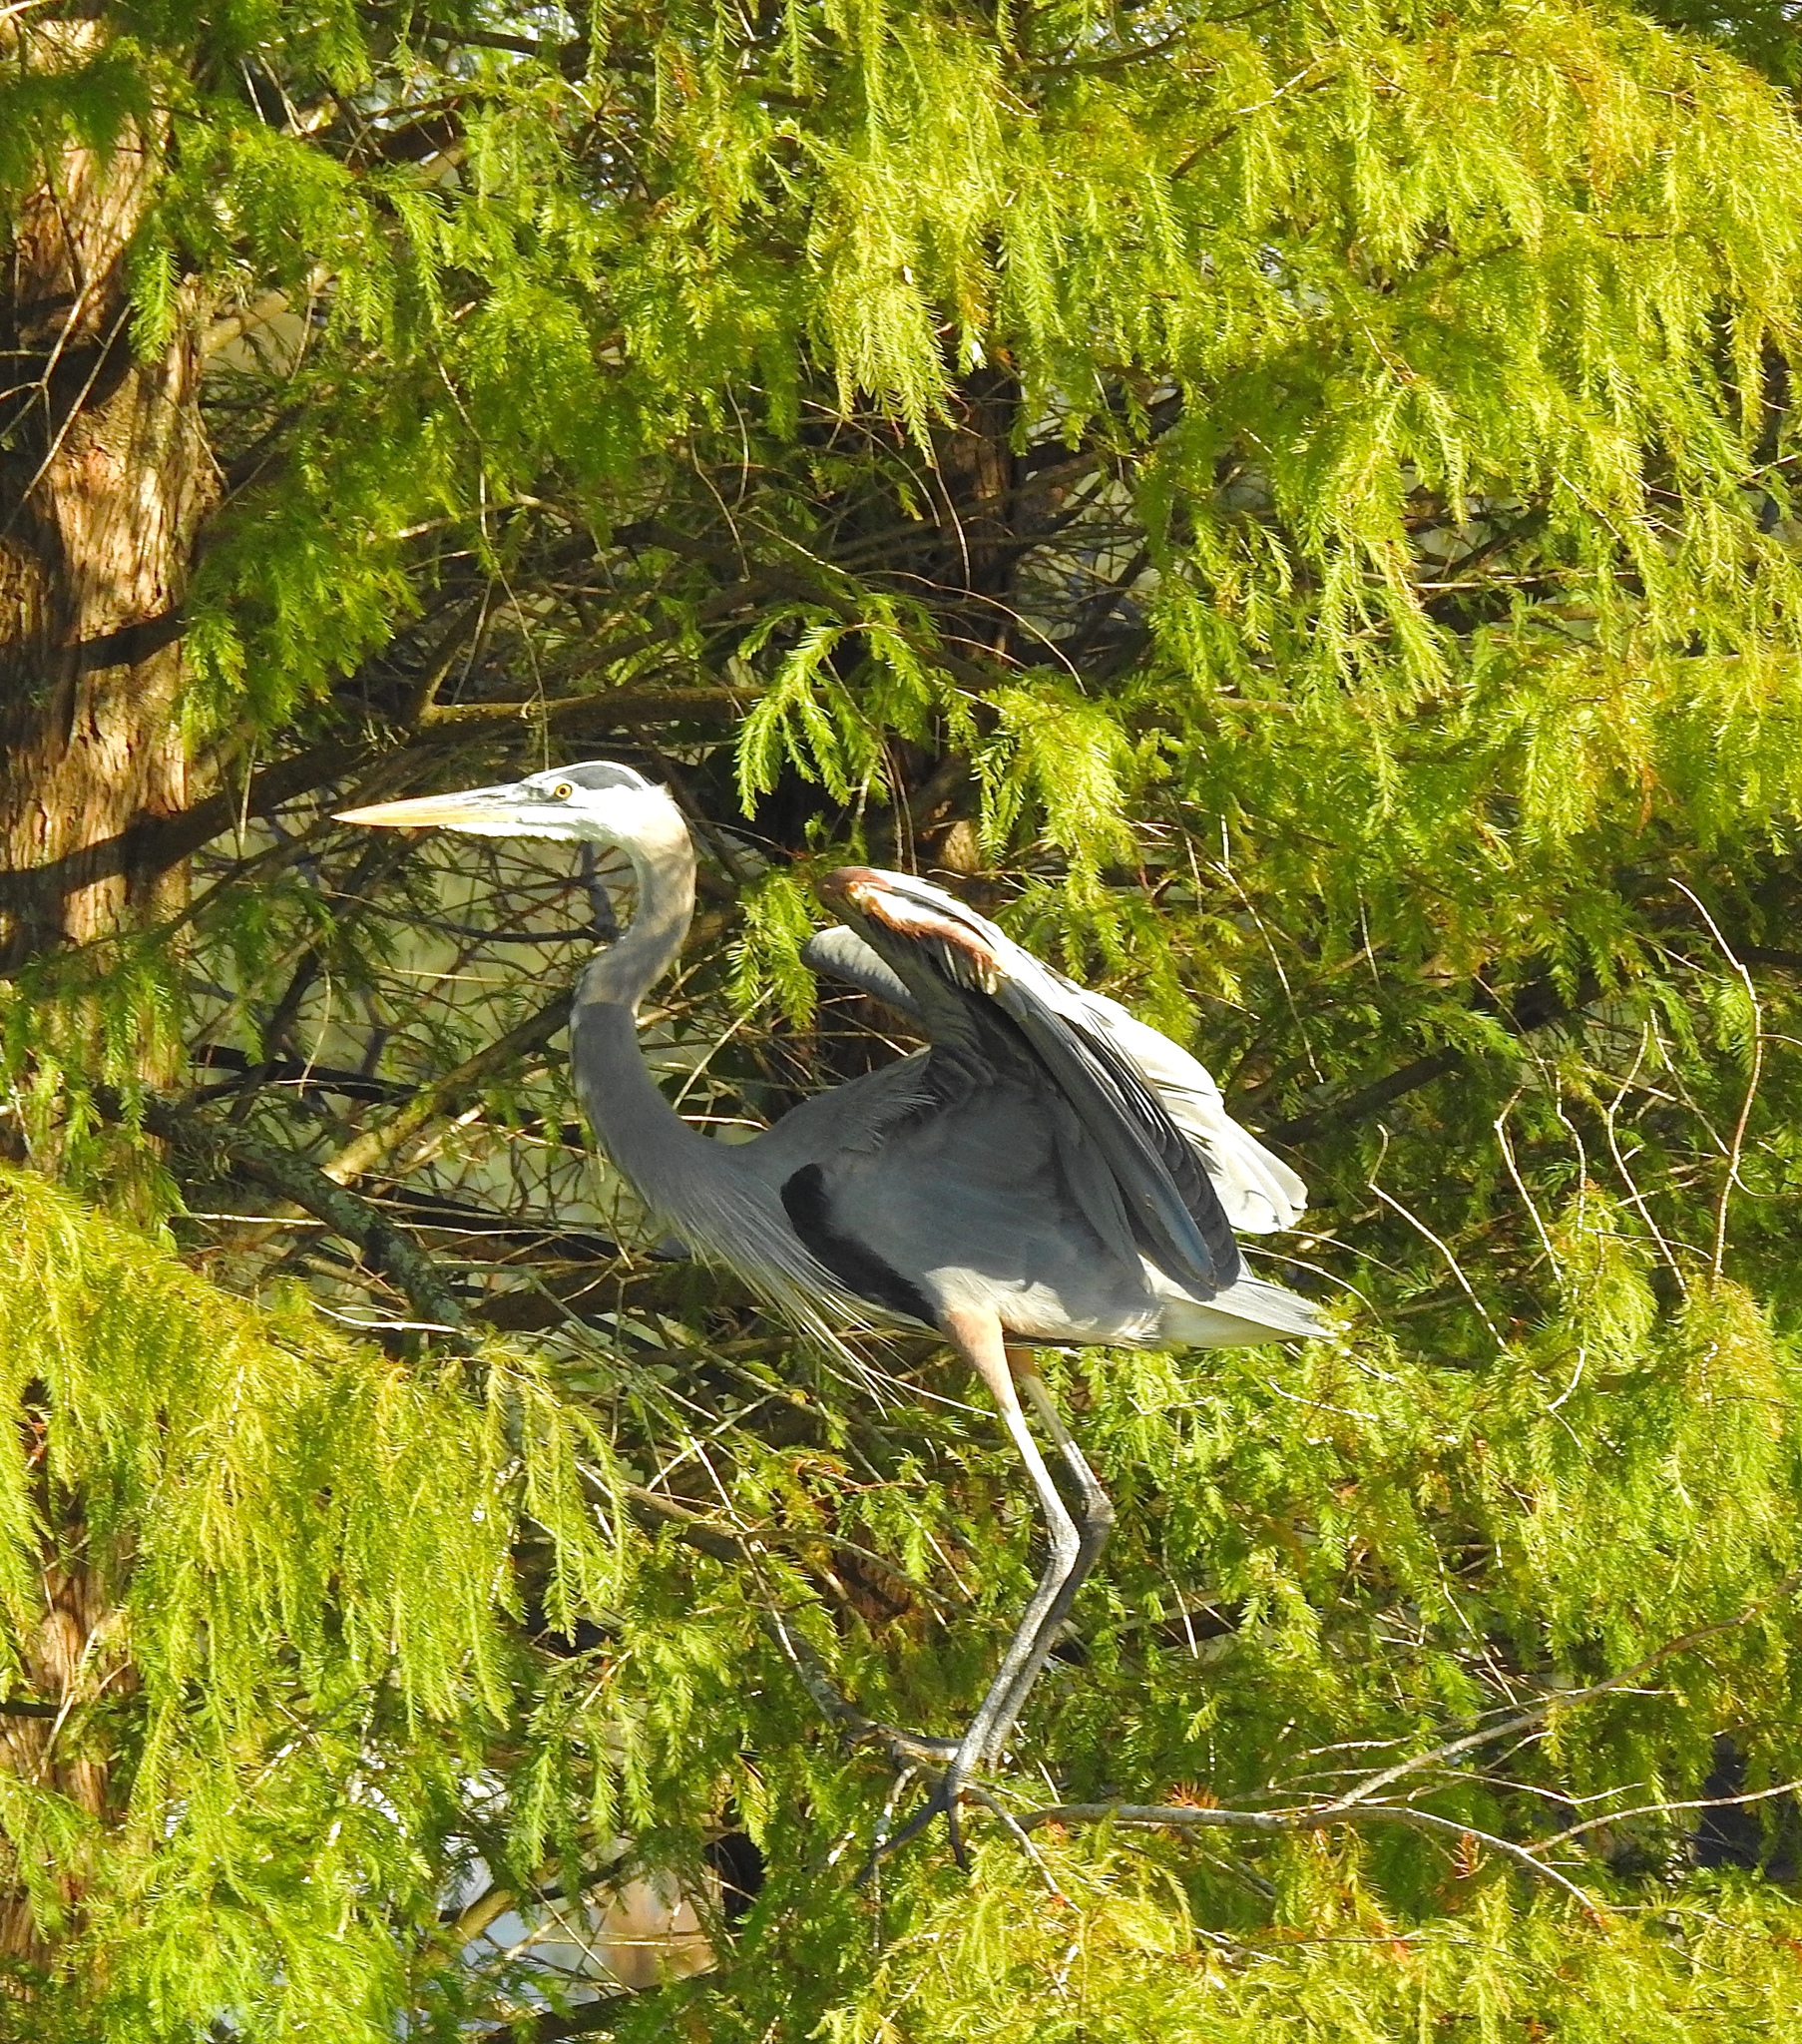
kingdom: Animalia
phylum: Chordata
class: Aves
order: Pelecaniformes
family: Ardeidae
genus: Ardea
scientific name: Ardea herodias
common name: Great blue heron
